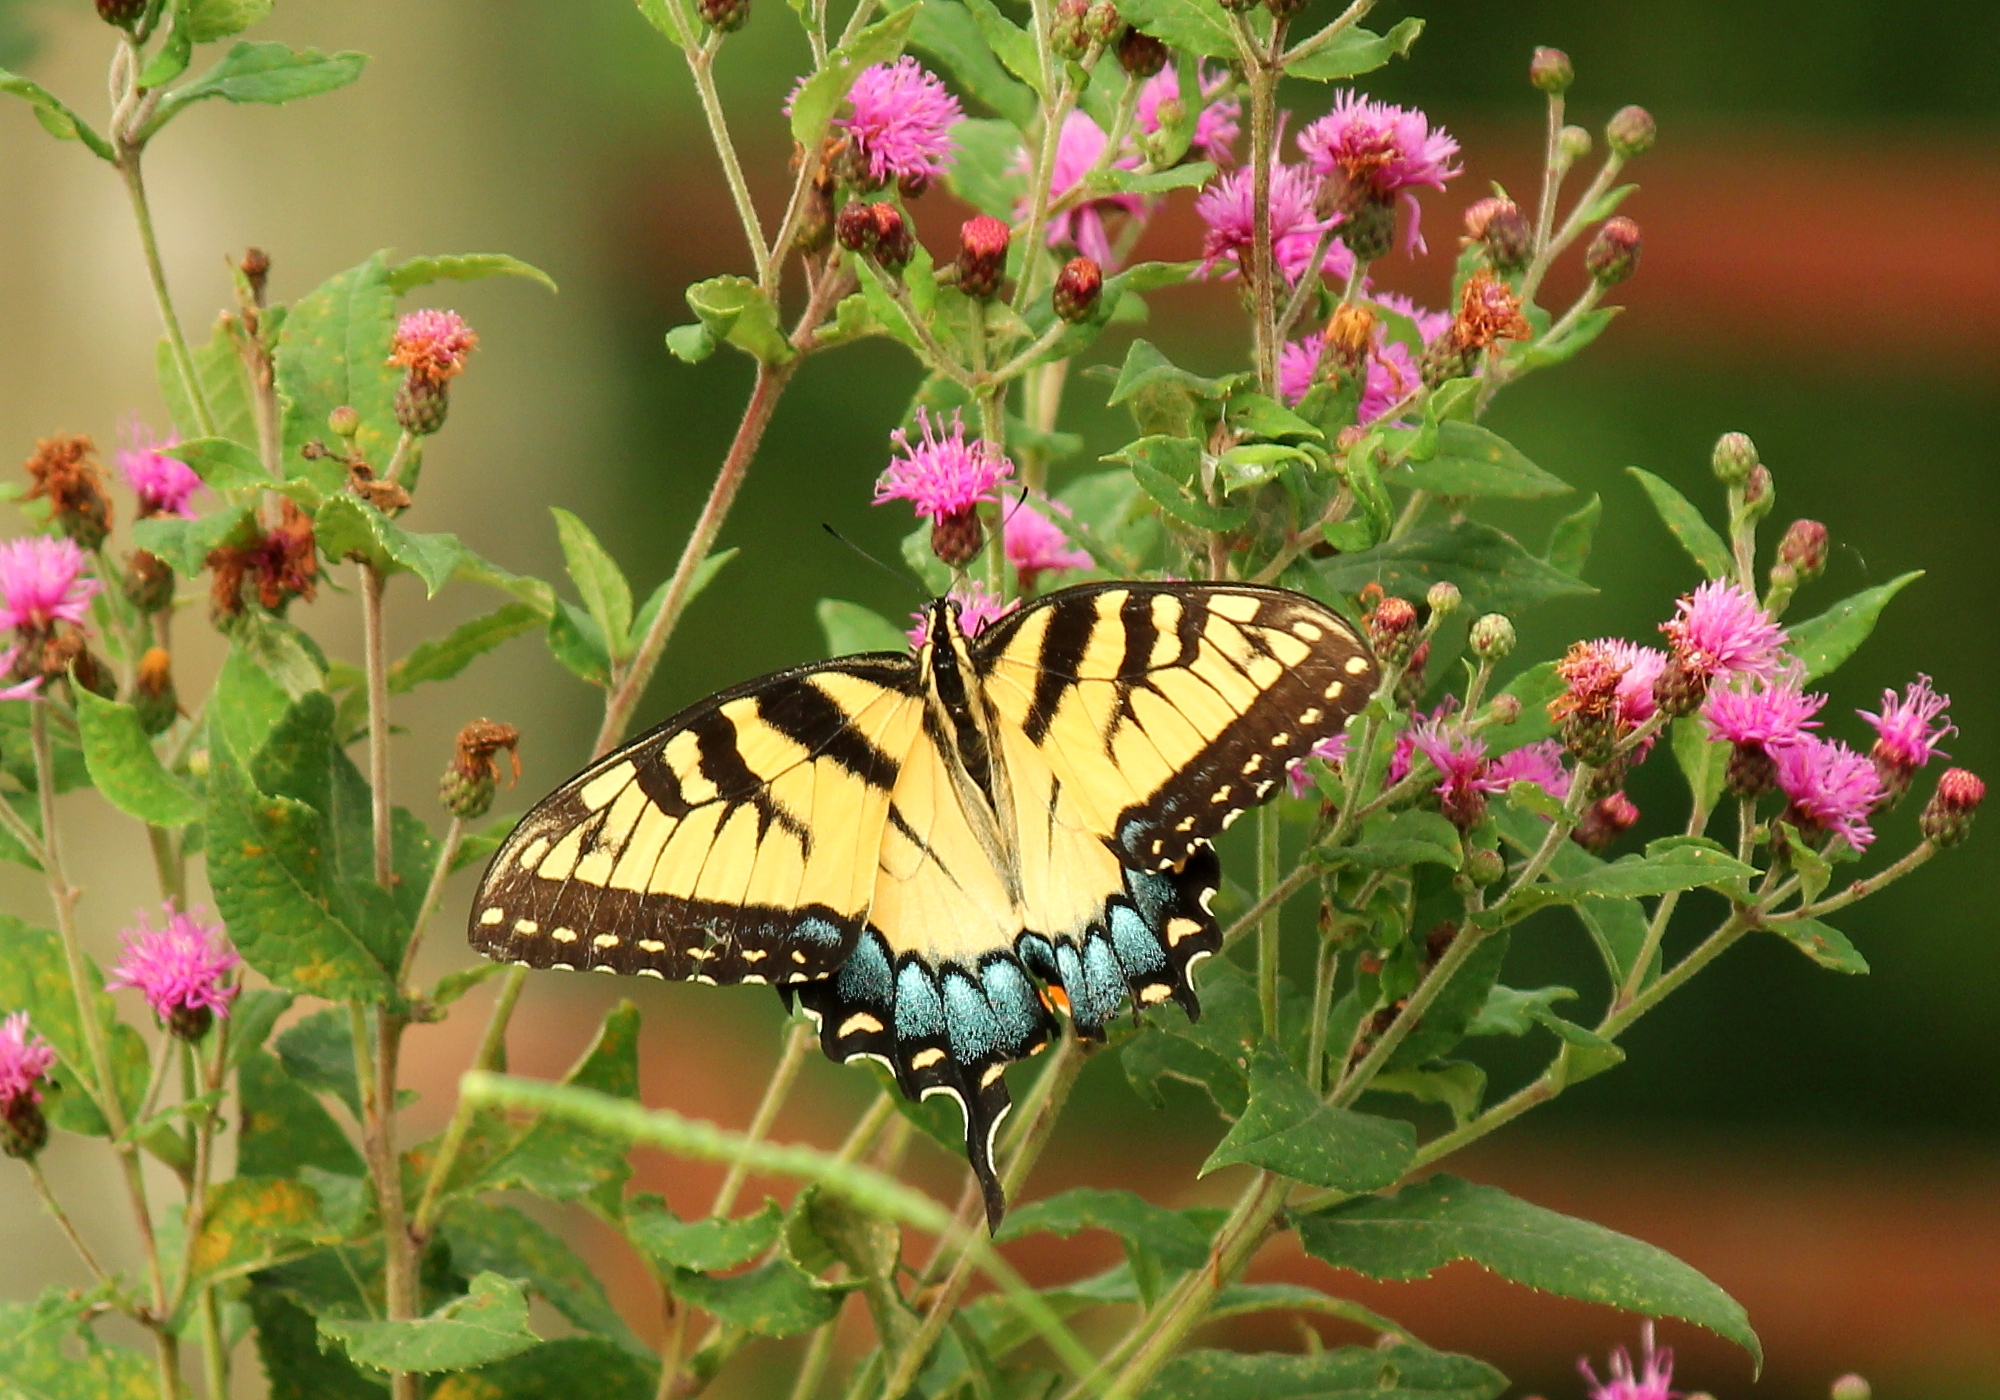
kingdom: Animalia
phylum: Arthropoda
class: Insecta
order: Lepidoptera
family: Papilionidae
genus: Papilio
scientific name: Papilio glaucus
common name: Tiger swallowtail
